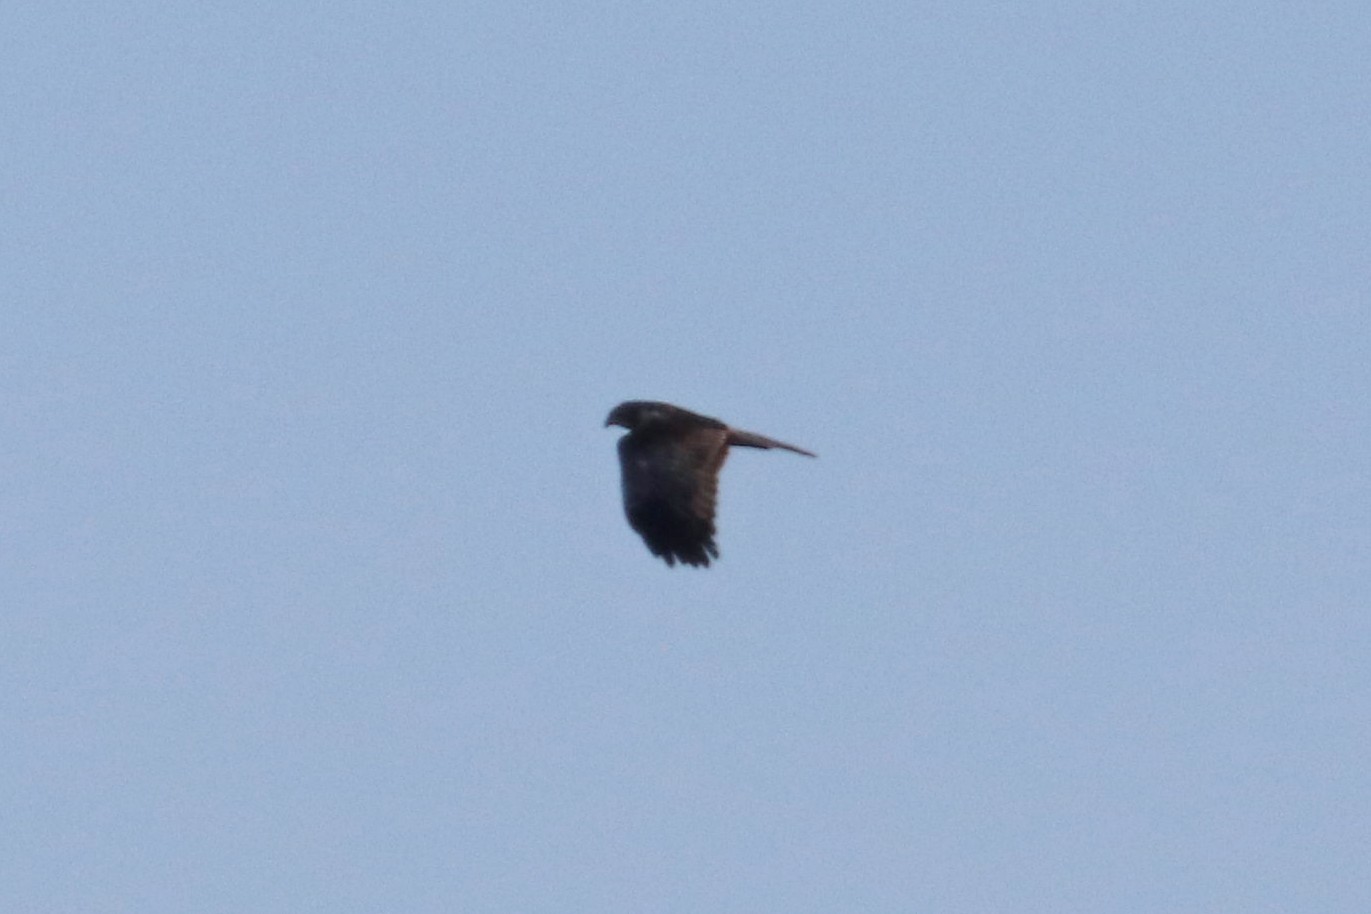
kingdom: Animalia
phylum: Chordata
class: Aves
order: Accipitriformes
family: Accipitridae
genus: Circus
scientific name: Circus aeruginosus
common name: Western marsh harrier
